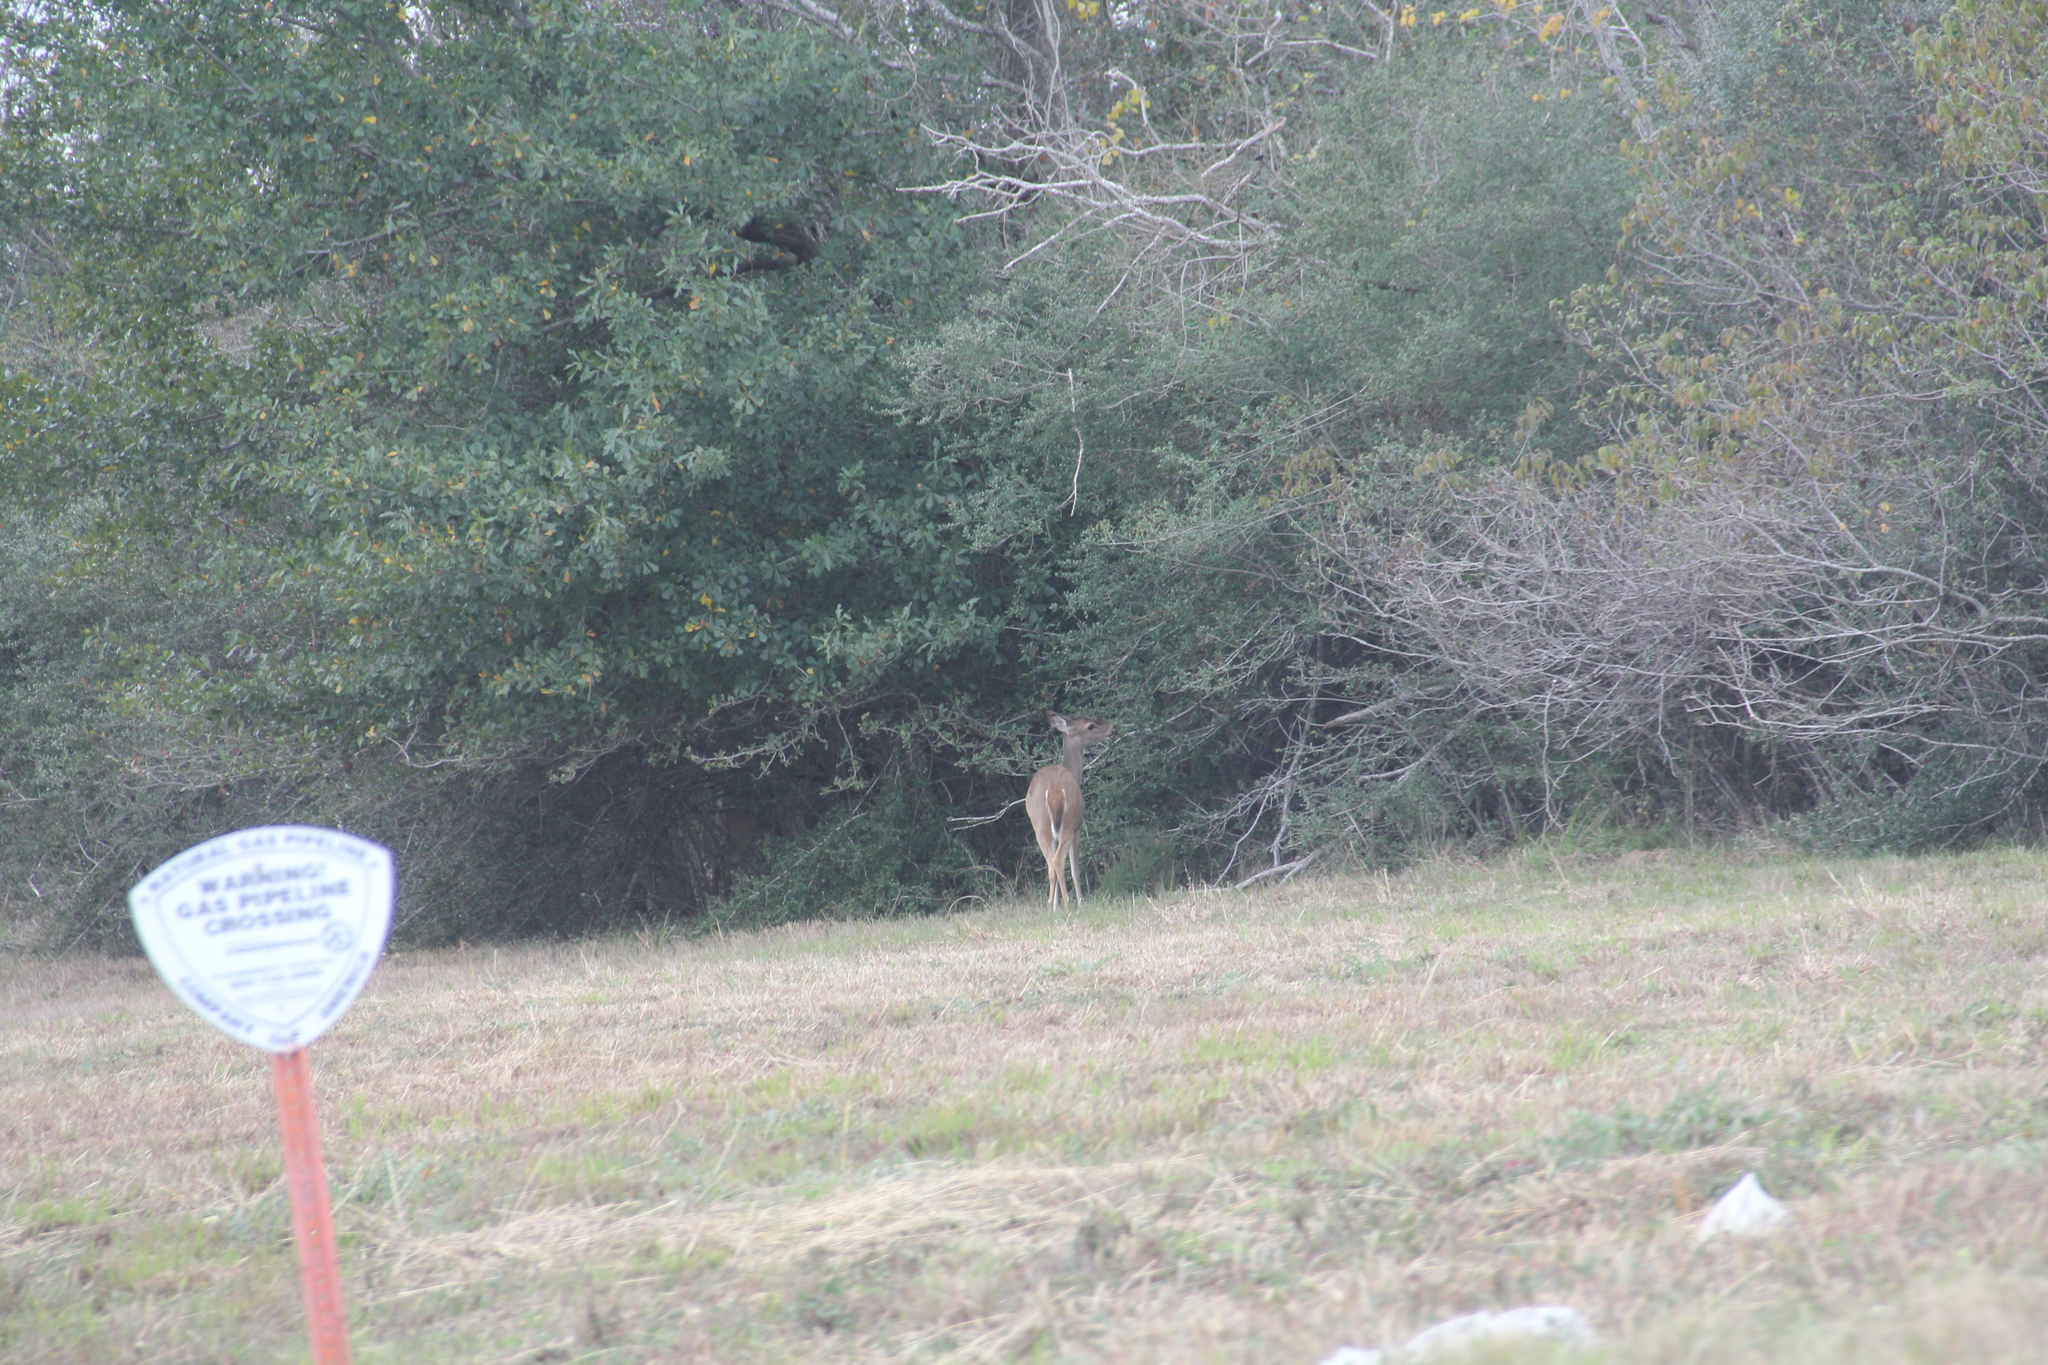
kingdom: Animalia
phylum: Chordata
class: Mammalia
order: Artiodactyla
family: Cervidae
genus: Odocoileus
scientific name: Odocoileus virginianus
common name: White-tailed deer
